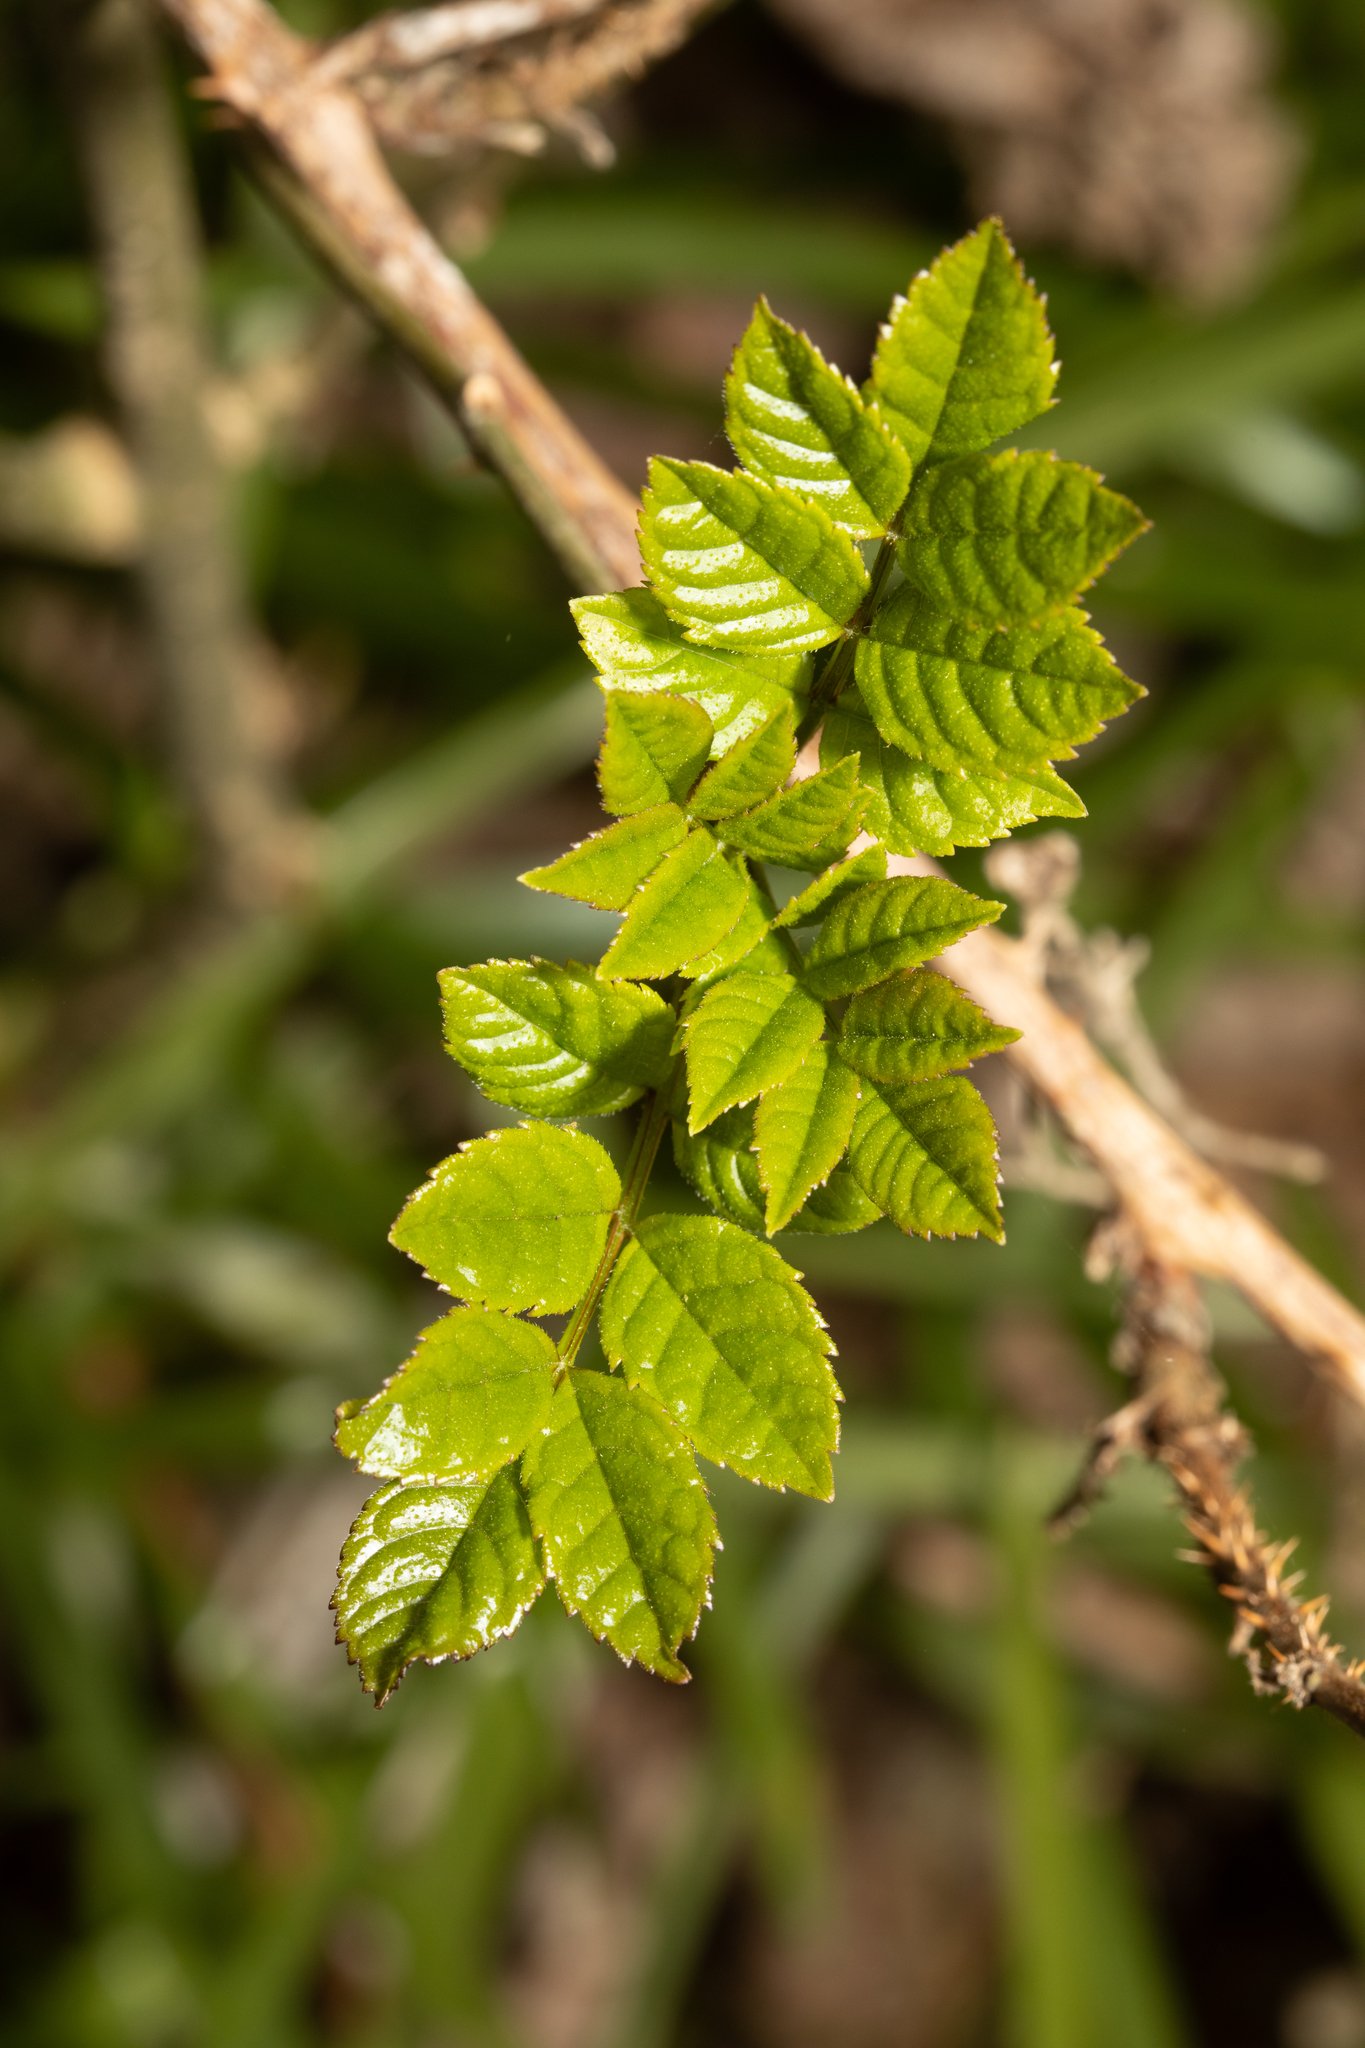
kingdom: Plantae
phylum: Tracheophyta
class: Magnoliopsida
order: Lamiales
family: Oleaceae
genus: Fraxinus
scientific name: Fraxinus excelsior
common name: European ash
